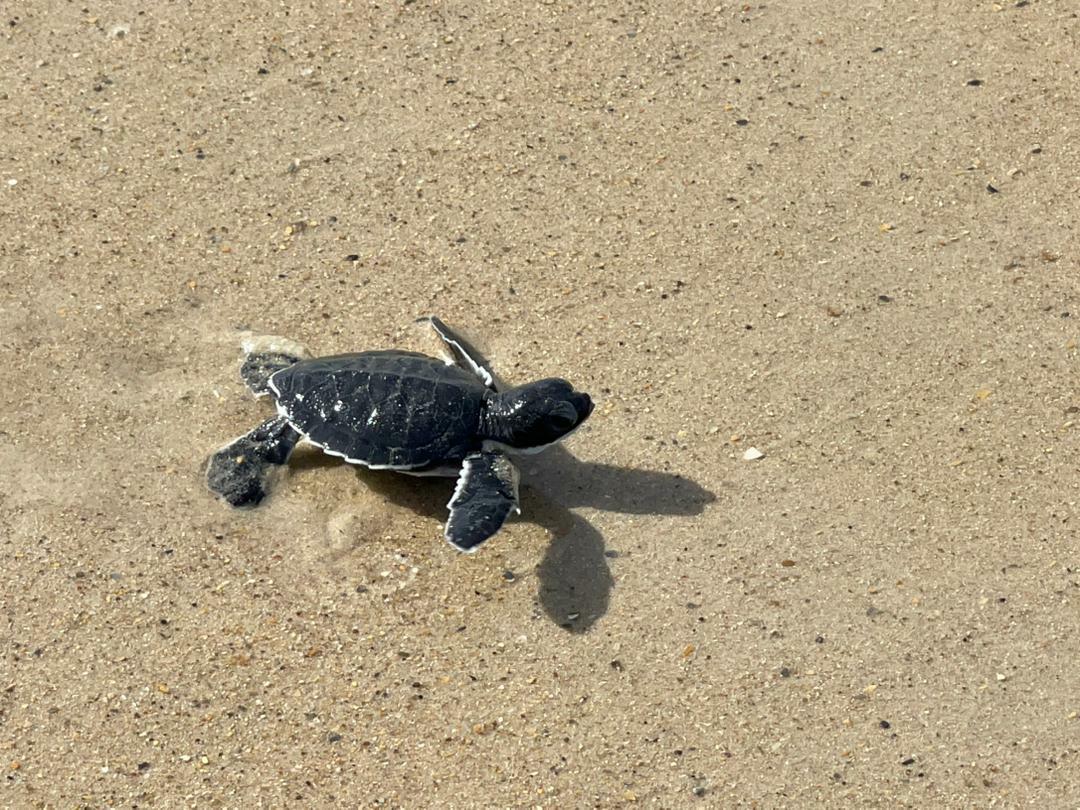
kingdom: Animalia
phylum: Chordata
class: Testudines
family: Cheloniidae
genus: Chelonia
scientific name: Chelonia mydas
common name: Green turtle
